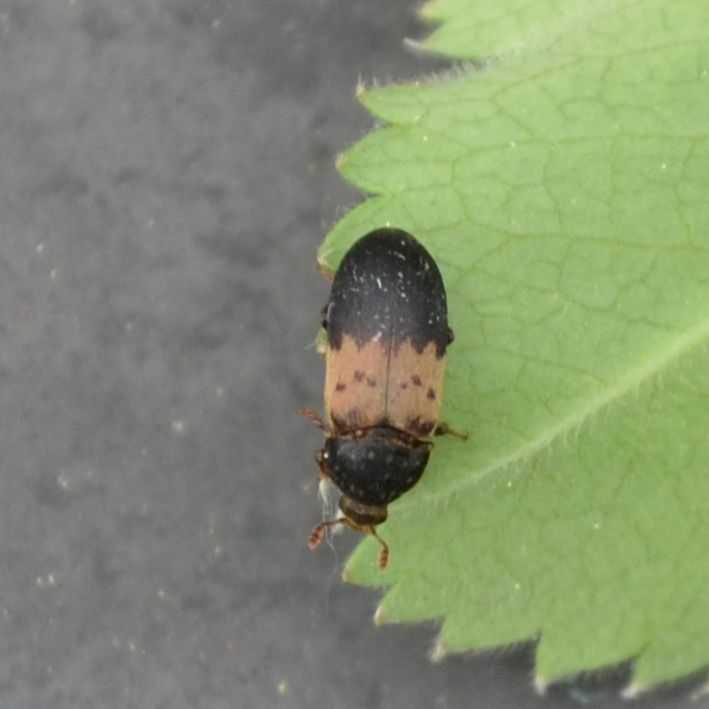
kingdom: Animalia
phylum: Arthropoda
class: Insecta
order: Coleoptera
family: Dermestidae
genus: Dermestes
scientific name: Dermestes lardarius
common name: Larder beetle
